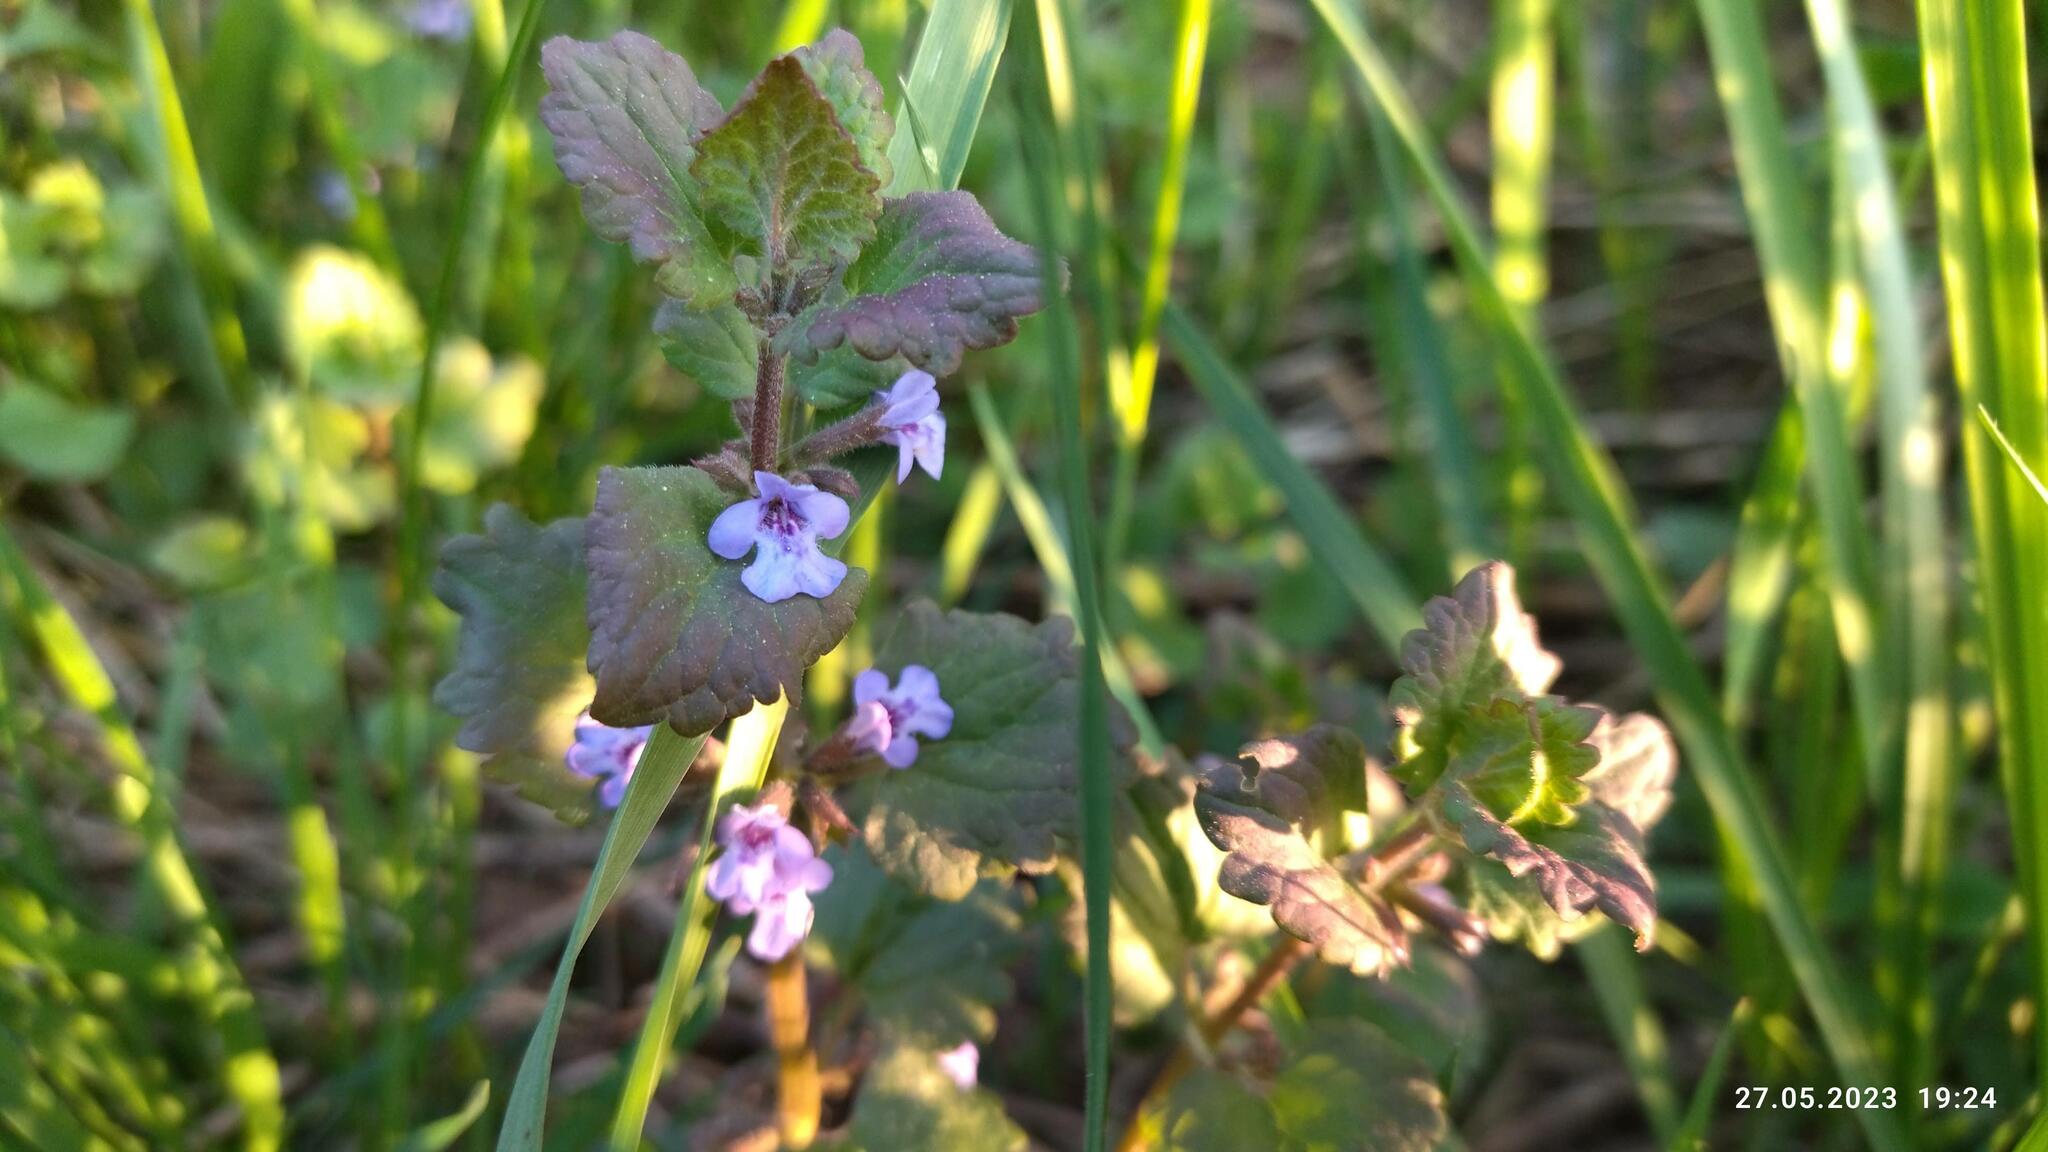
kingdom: Plantae
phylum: Tracheophyta
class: Magnoliopsida
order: Lamiales
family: Lamiaceae
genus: Glechoma
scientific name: Glechoma hederacea
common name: Ground ivy
